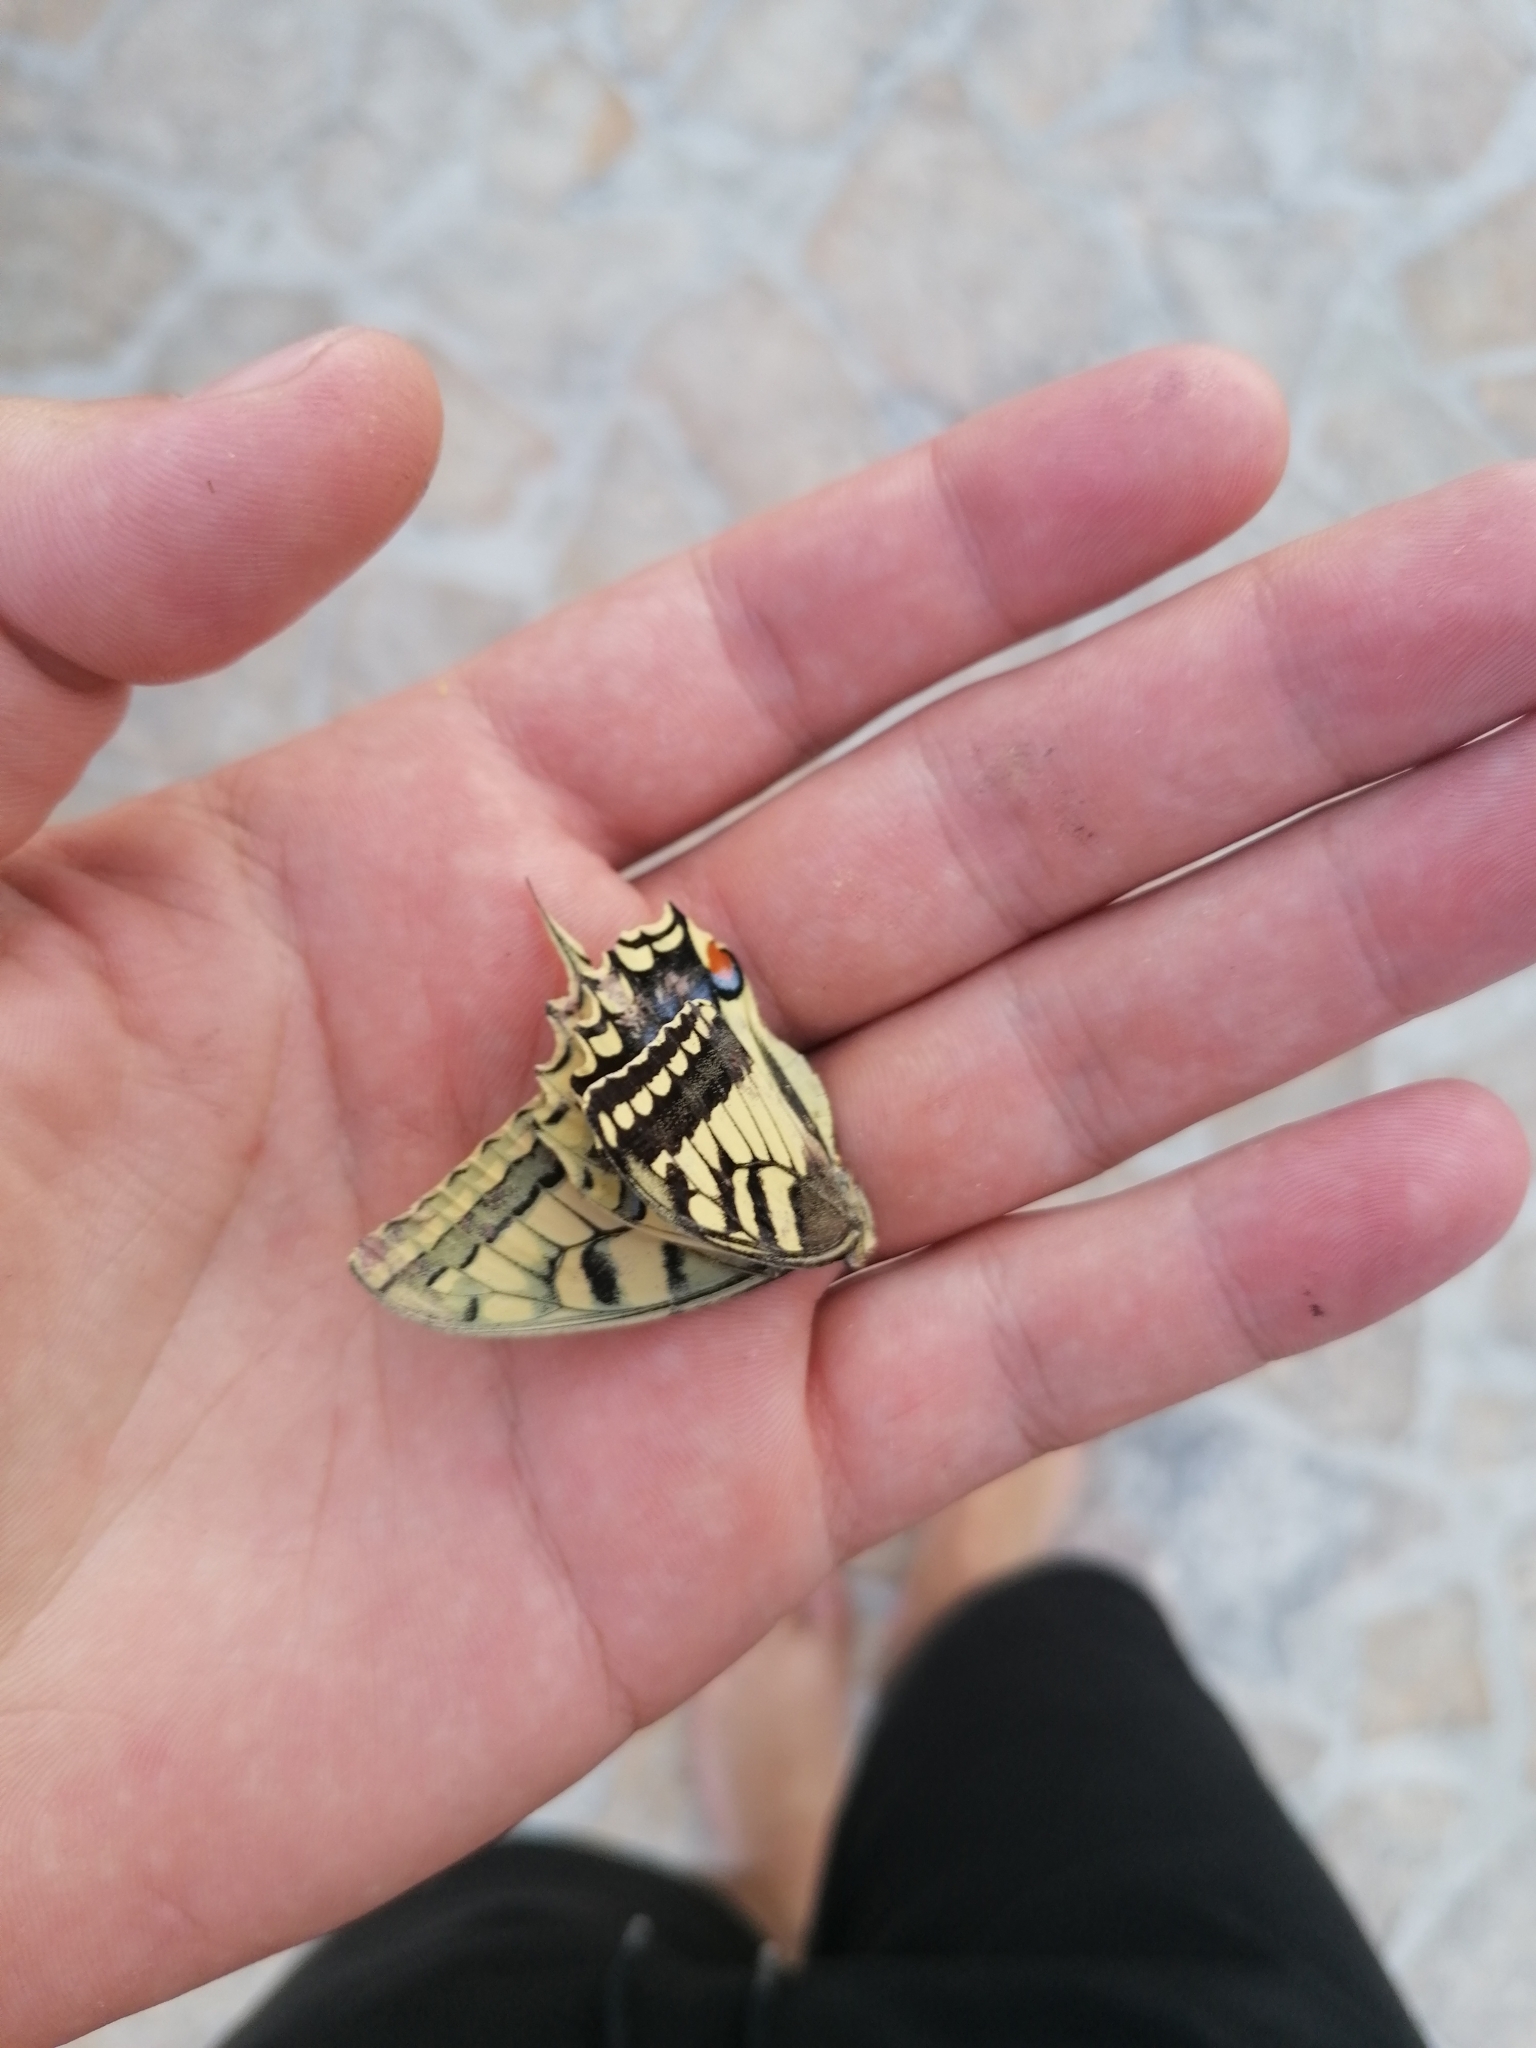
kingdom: Animalia
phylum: Arthropoda
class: Insecta
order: Lepidoptera
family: Papilionidae
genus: Papilio
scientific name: Papilio machaon
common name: Swallowtail
